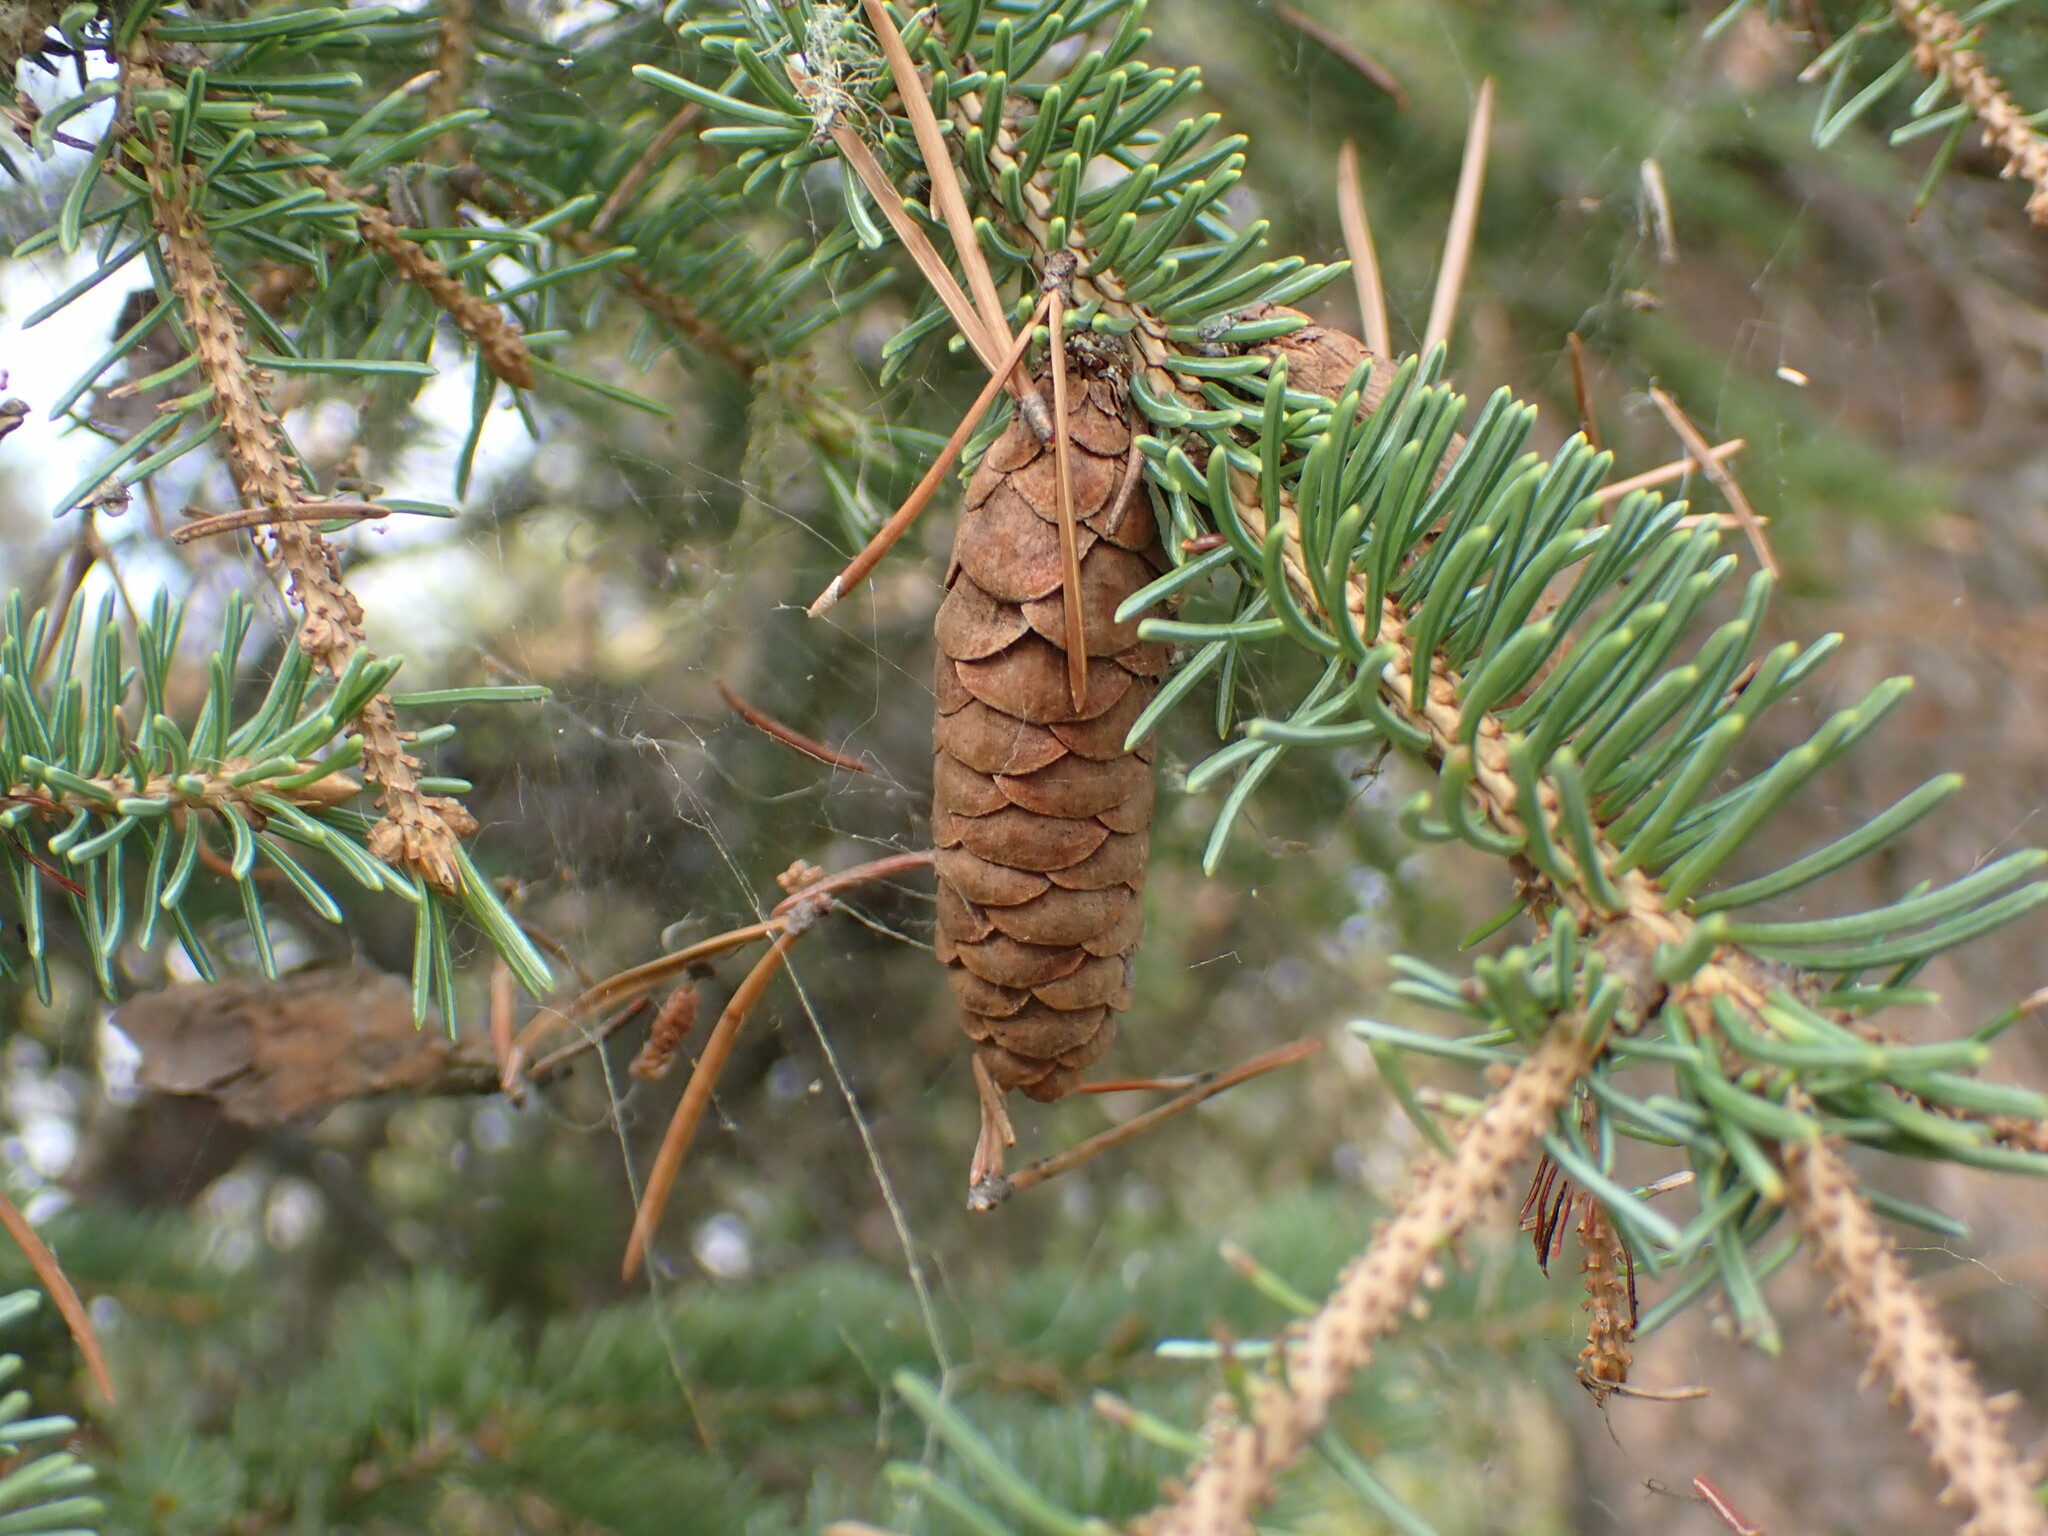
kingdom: Plantae
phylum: Tracheophyta
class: Pinopsida
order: Pinales
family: Pinaceae
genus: Picea
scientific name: Picea glauca
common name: White spruce
